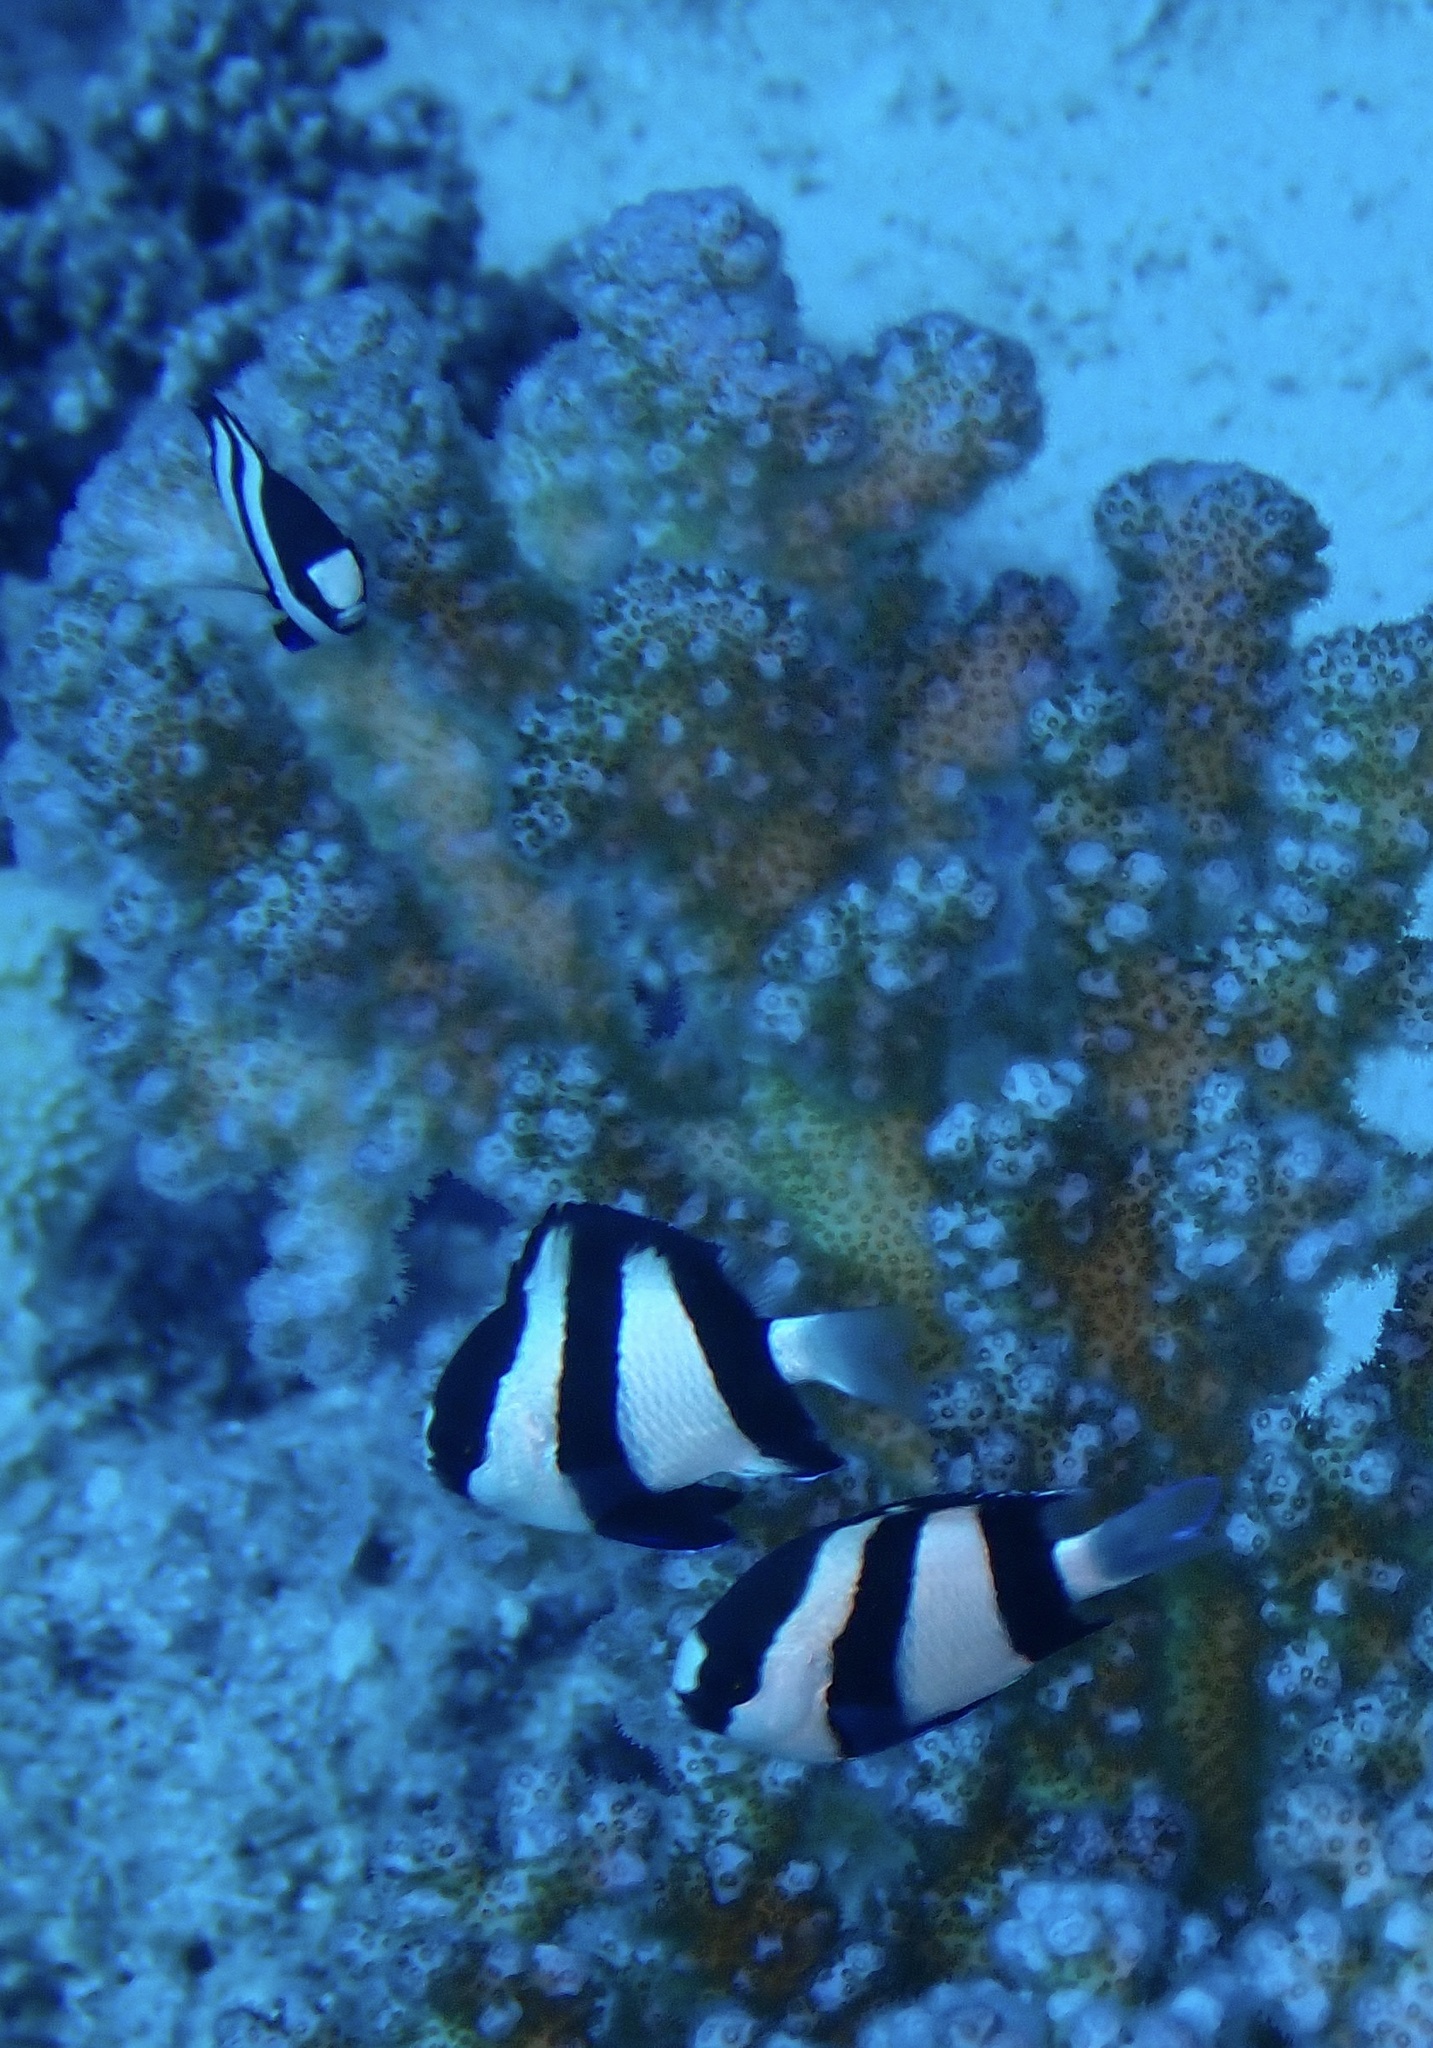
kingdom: Animalia
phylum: Chordata
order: Perciformes
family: Pomacentridae
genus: Dascyllus
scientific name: Dascyllus abudafur
